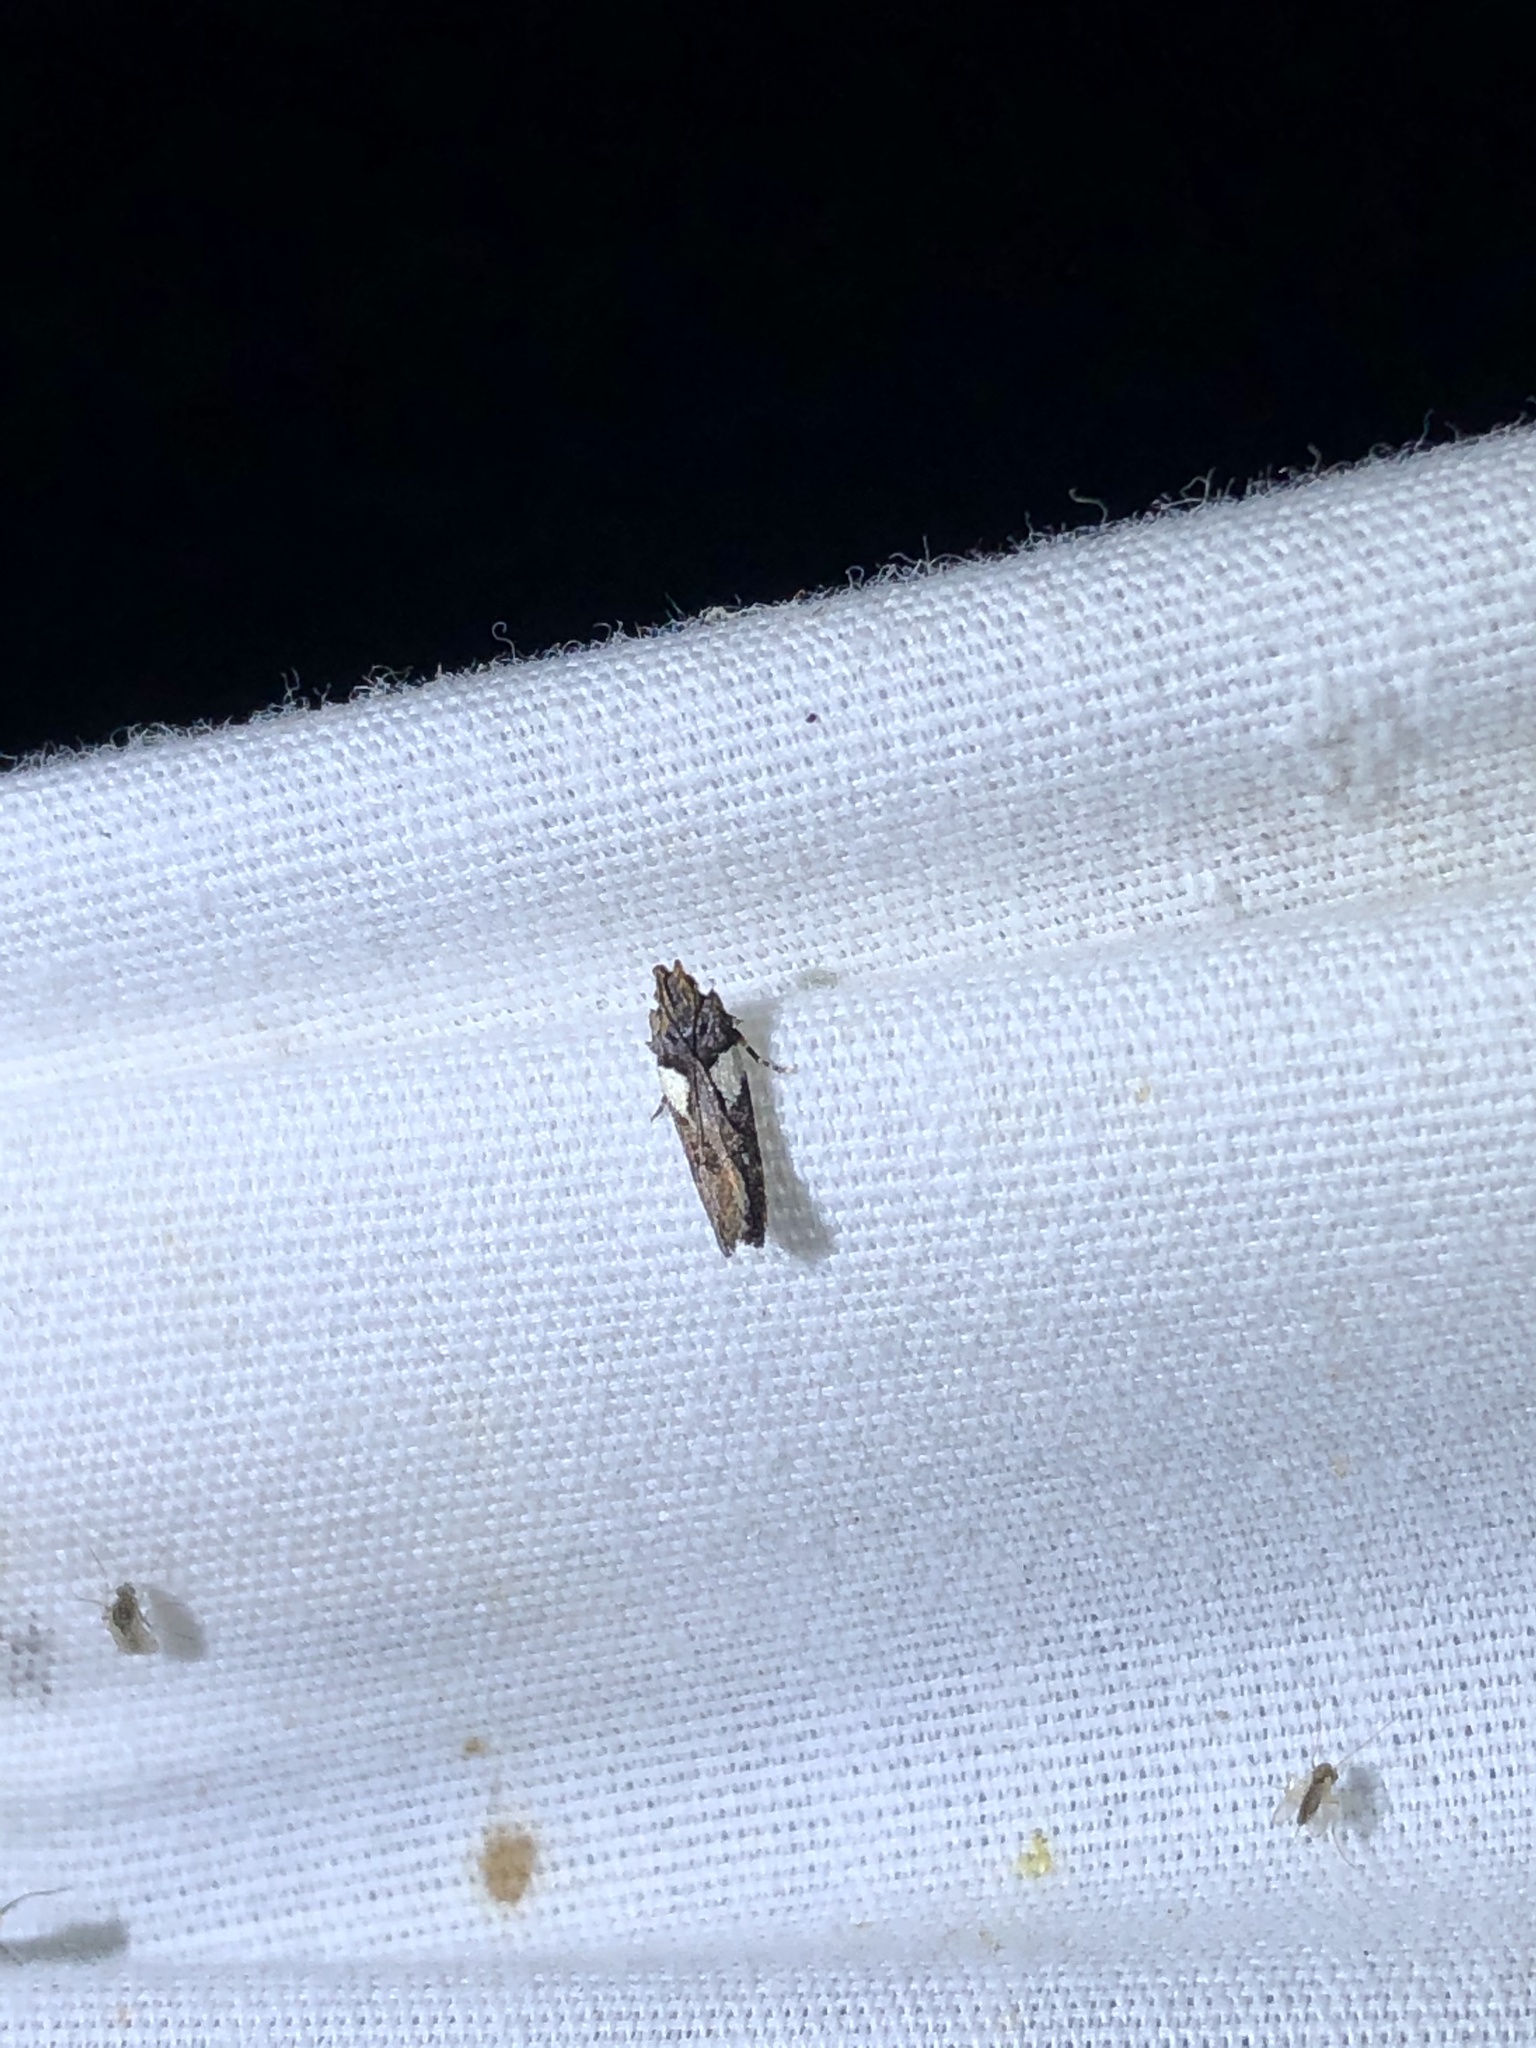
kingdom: Animalia
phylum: Arthropoda
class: Insecta
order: Lepidoptera
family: Gelechiidae
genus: Friseria
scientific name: Friseria acaciella
